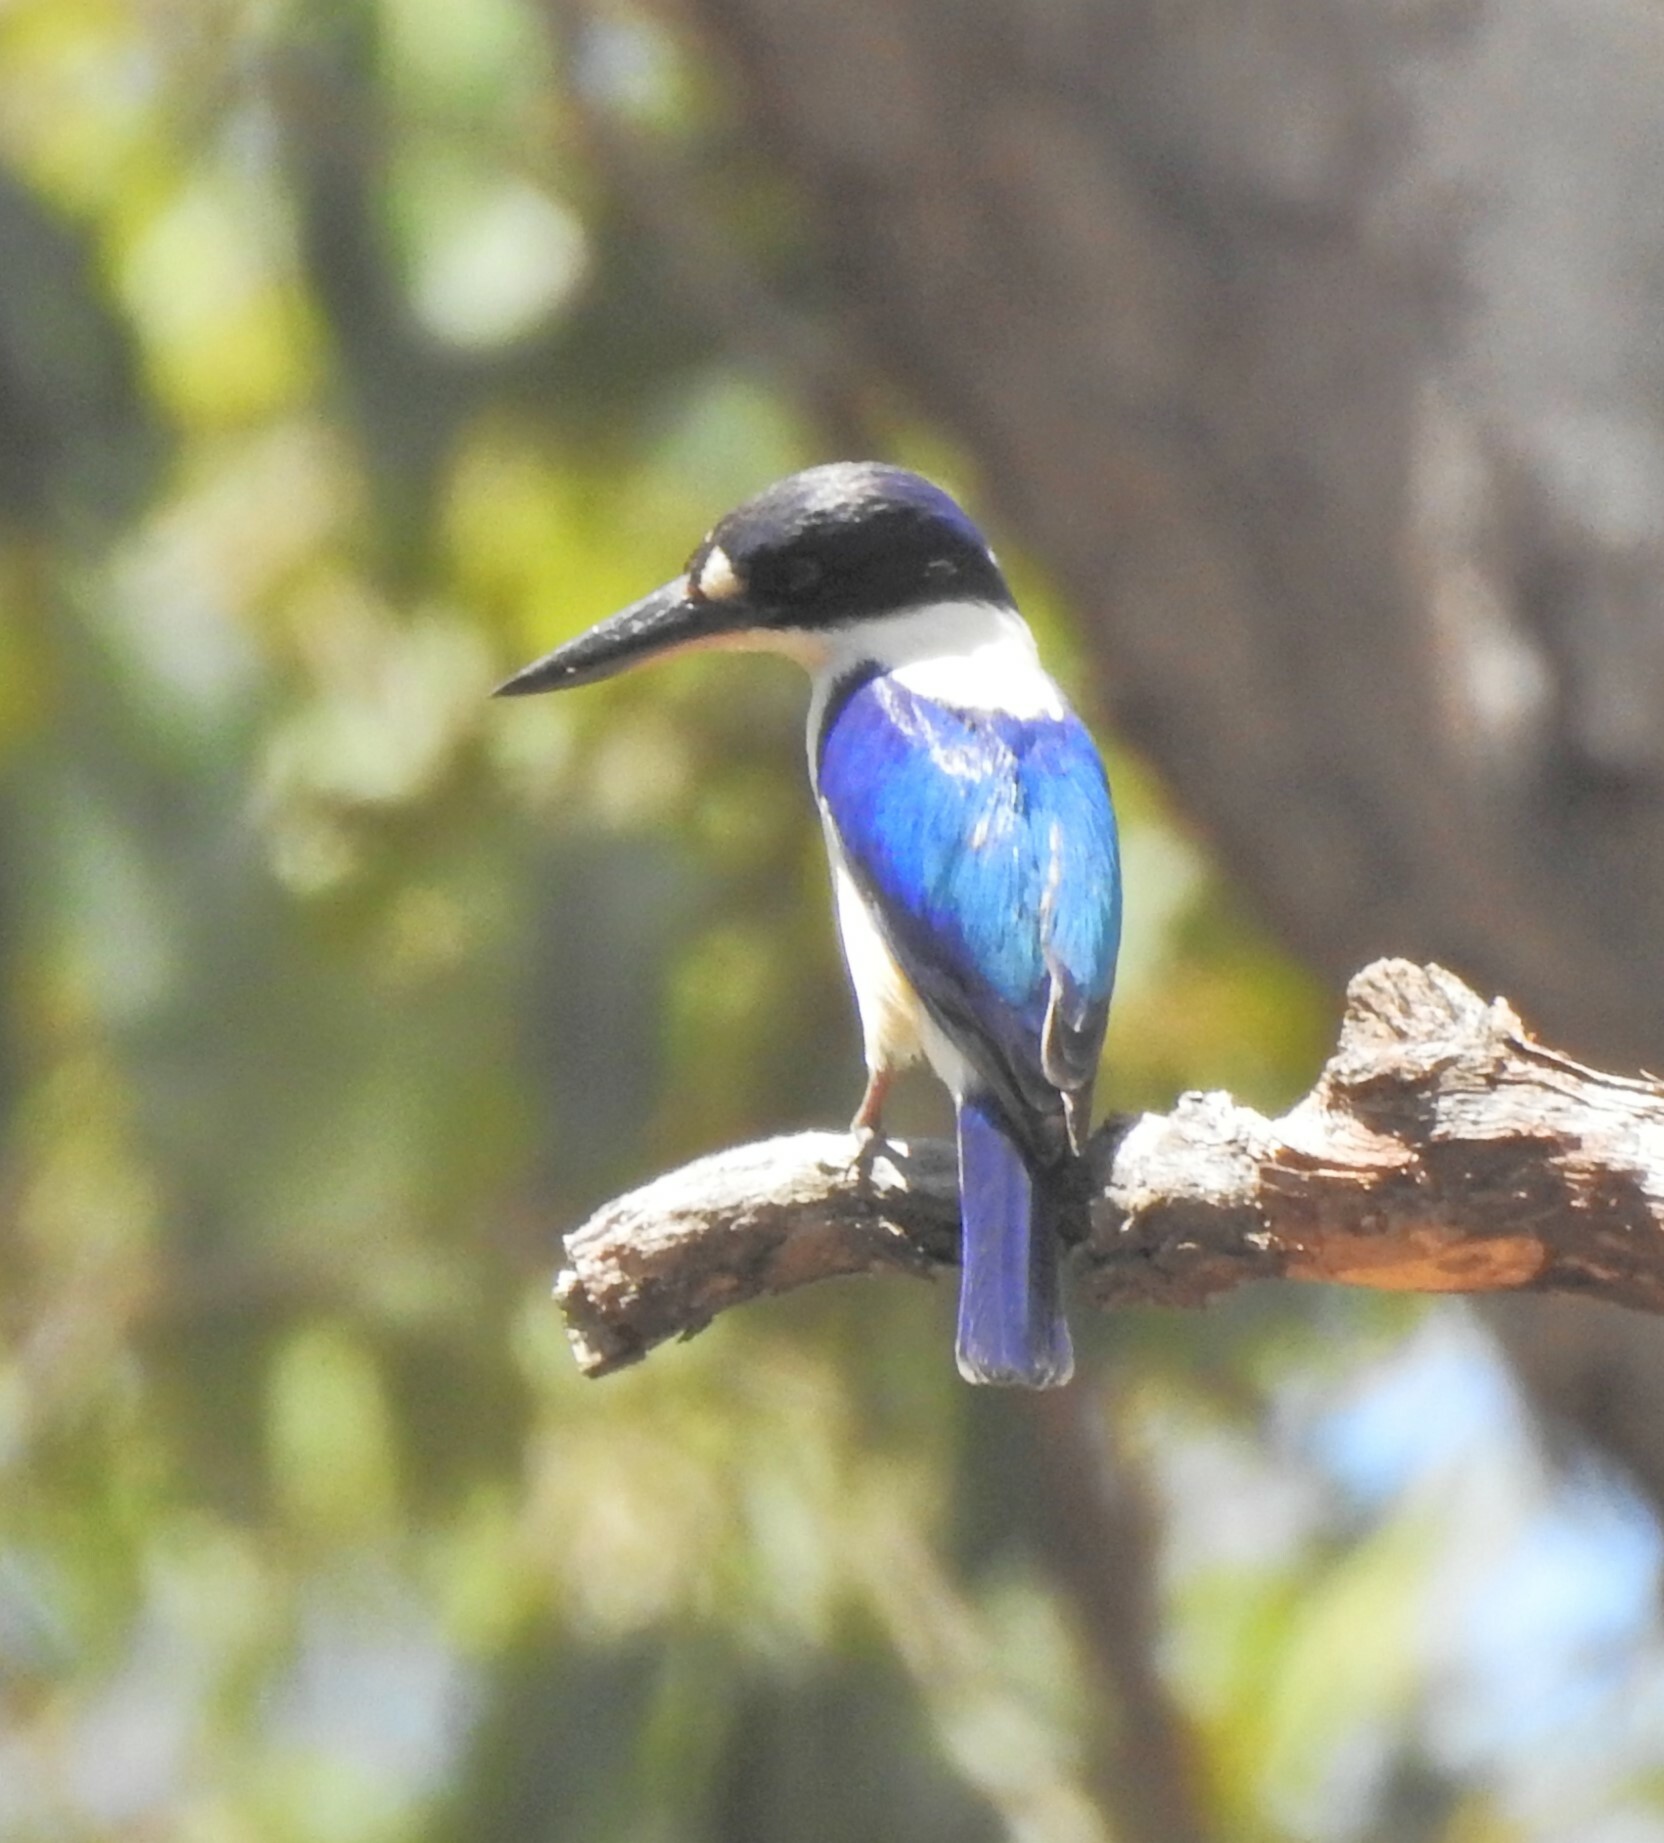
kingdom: Animalia
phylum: Chordata
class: Aves
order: Coraciiformes
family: Alcedinidae
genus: Todiramphus
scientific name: Todiramphus macleayii
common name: Forest kingfisher
